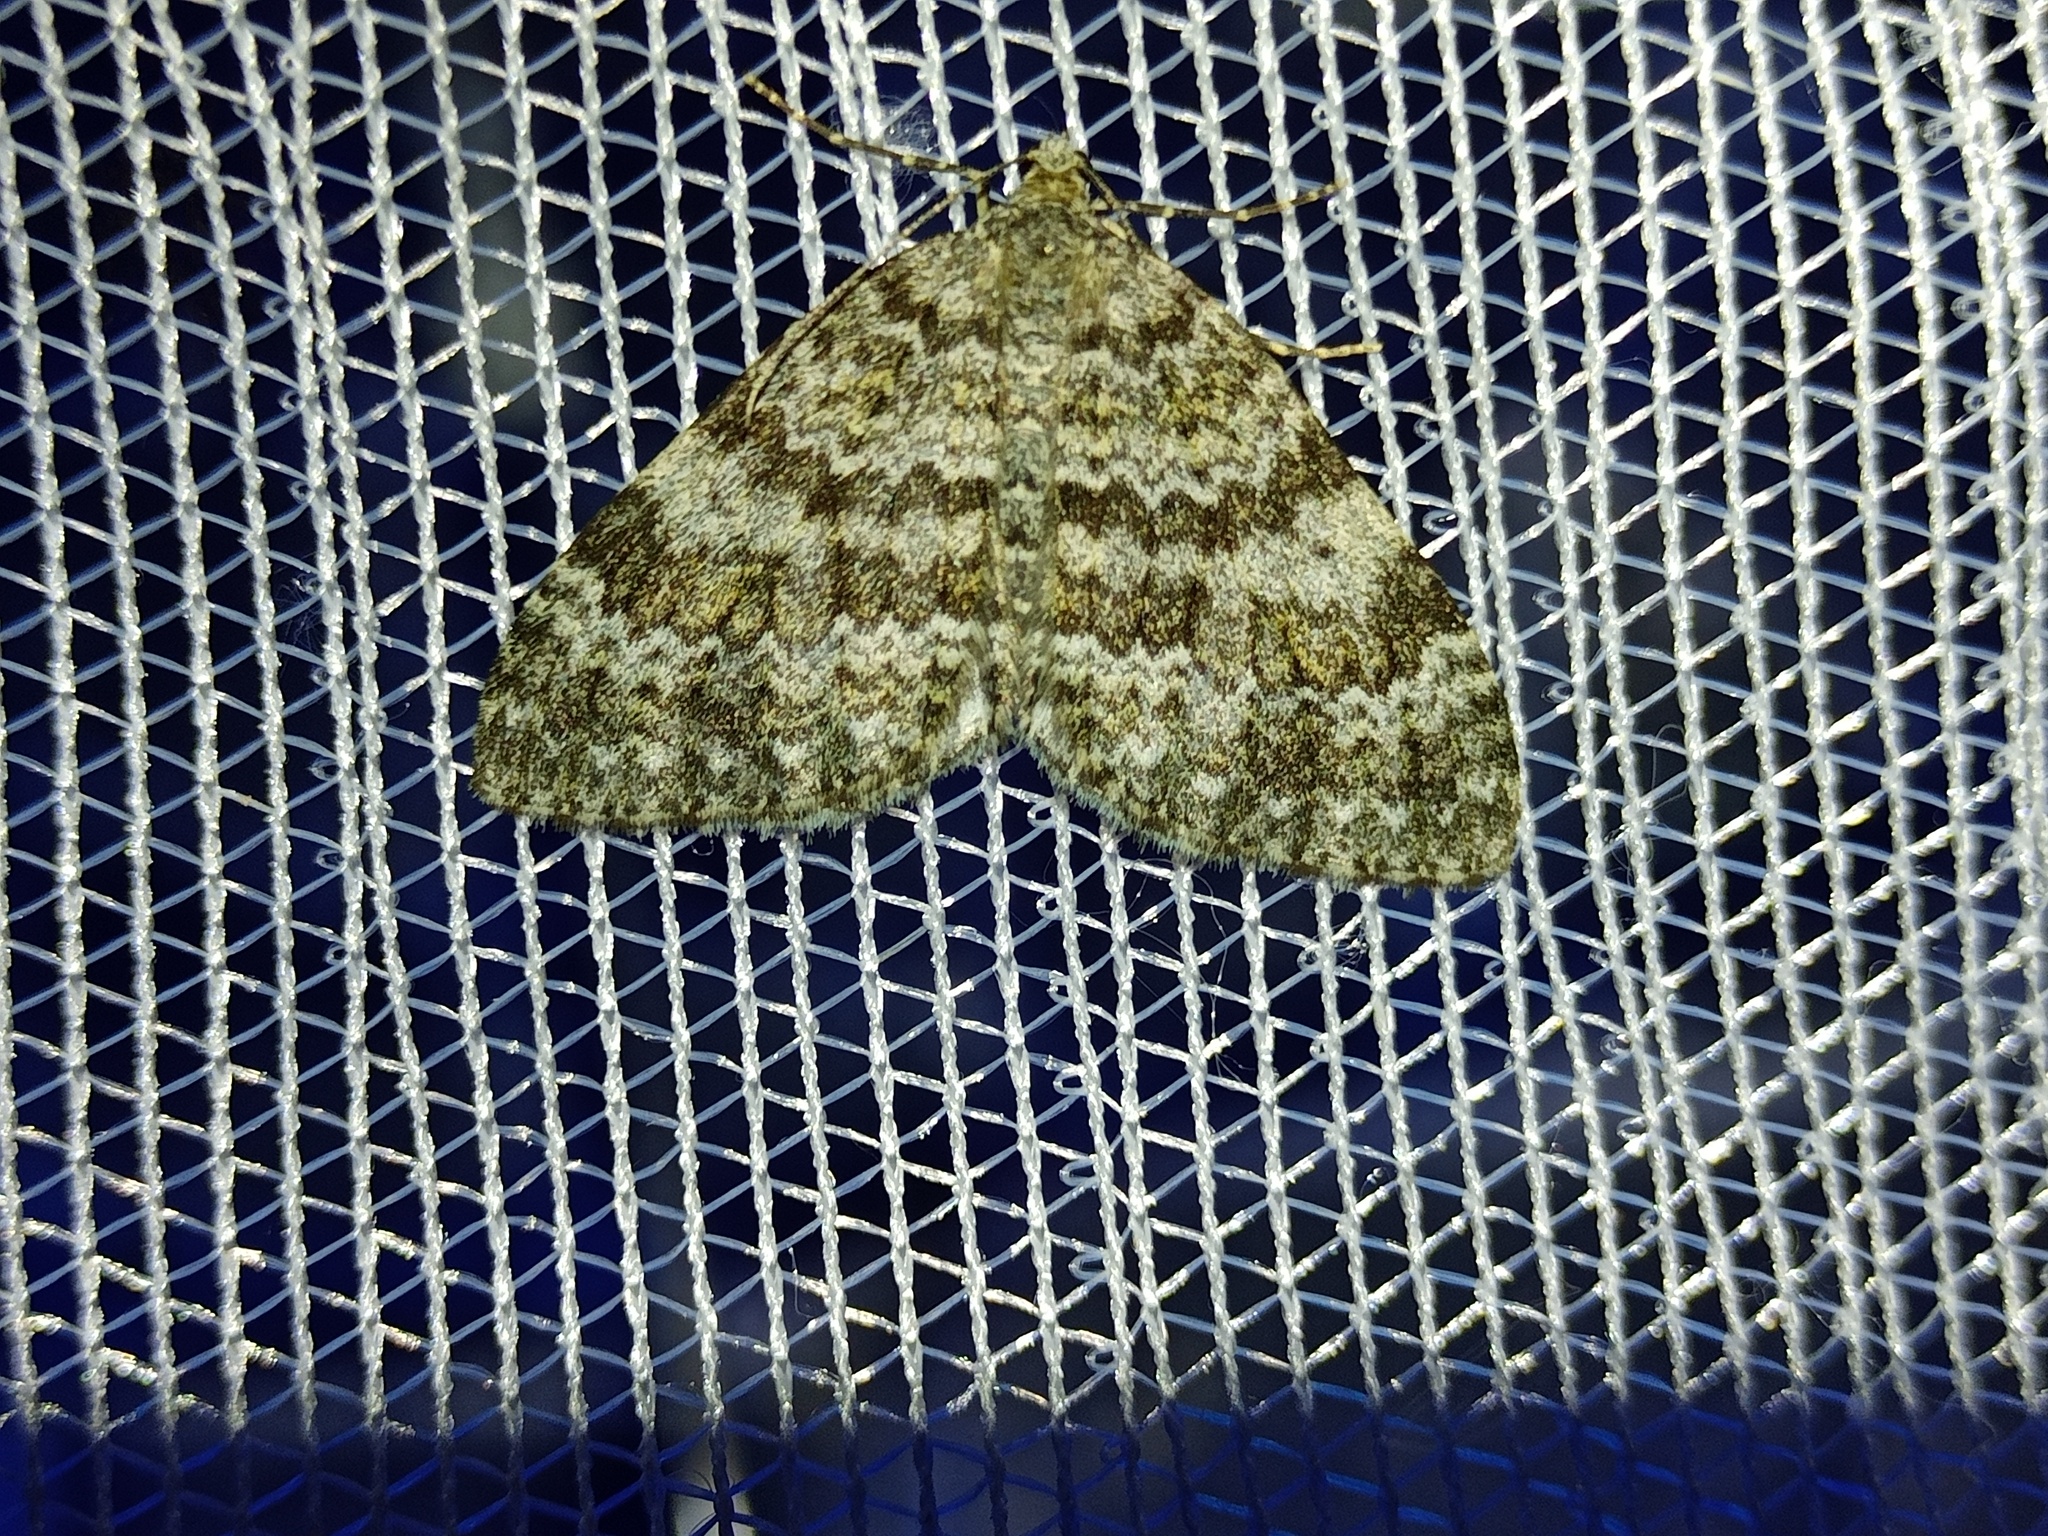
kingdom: Animalia
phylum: Arthropoda
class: Insecta
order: Lepidoptera
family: Geometridae
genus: Entephria
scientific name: Entephria caesiata
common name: Grey mountain moth
